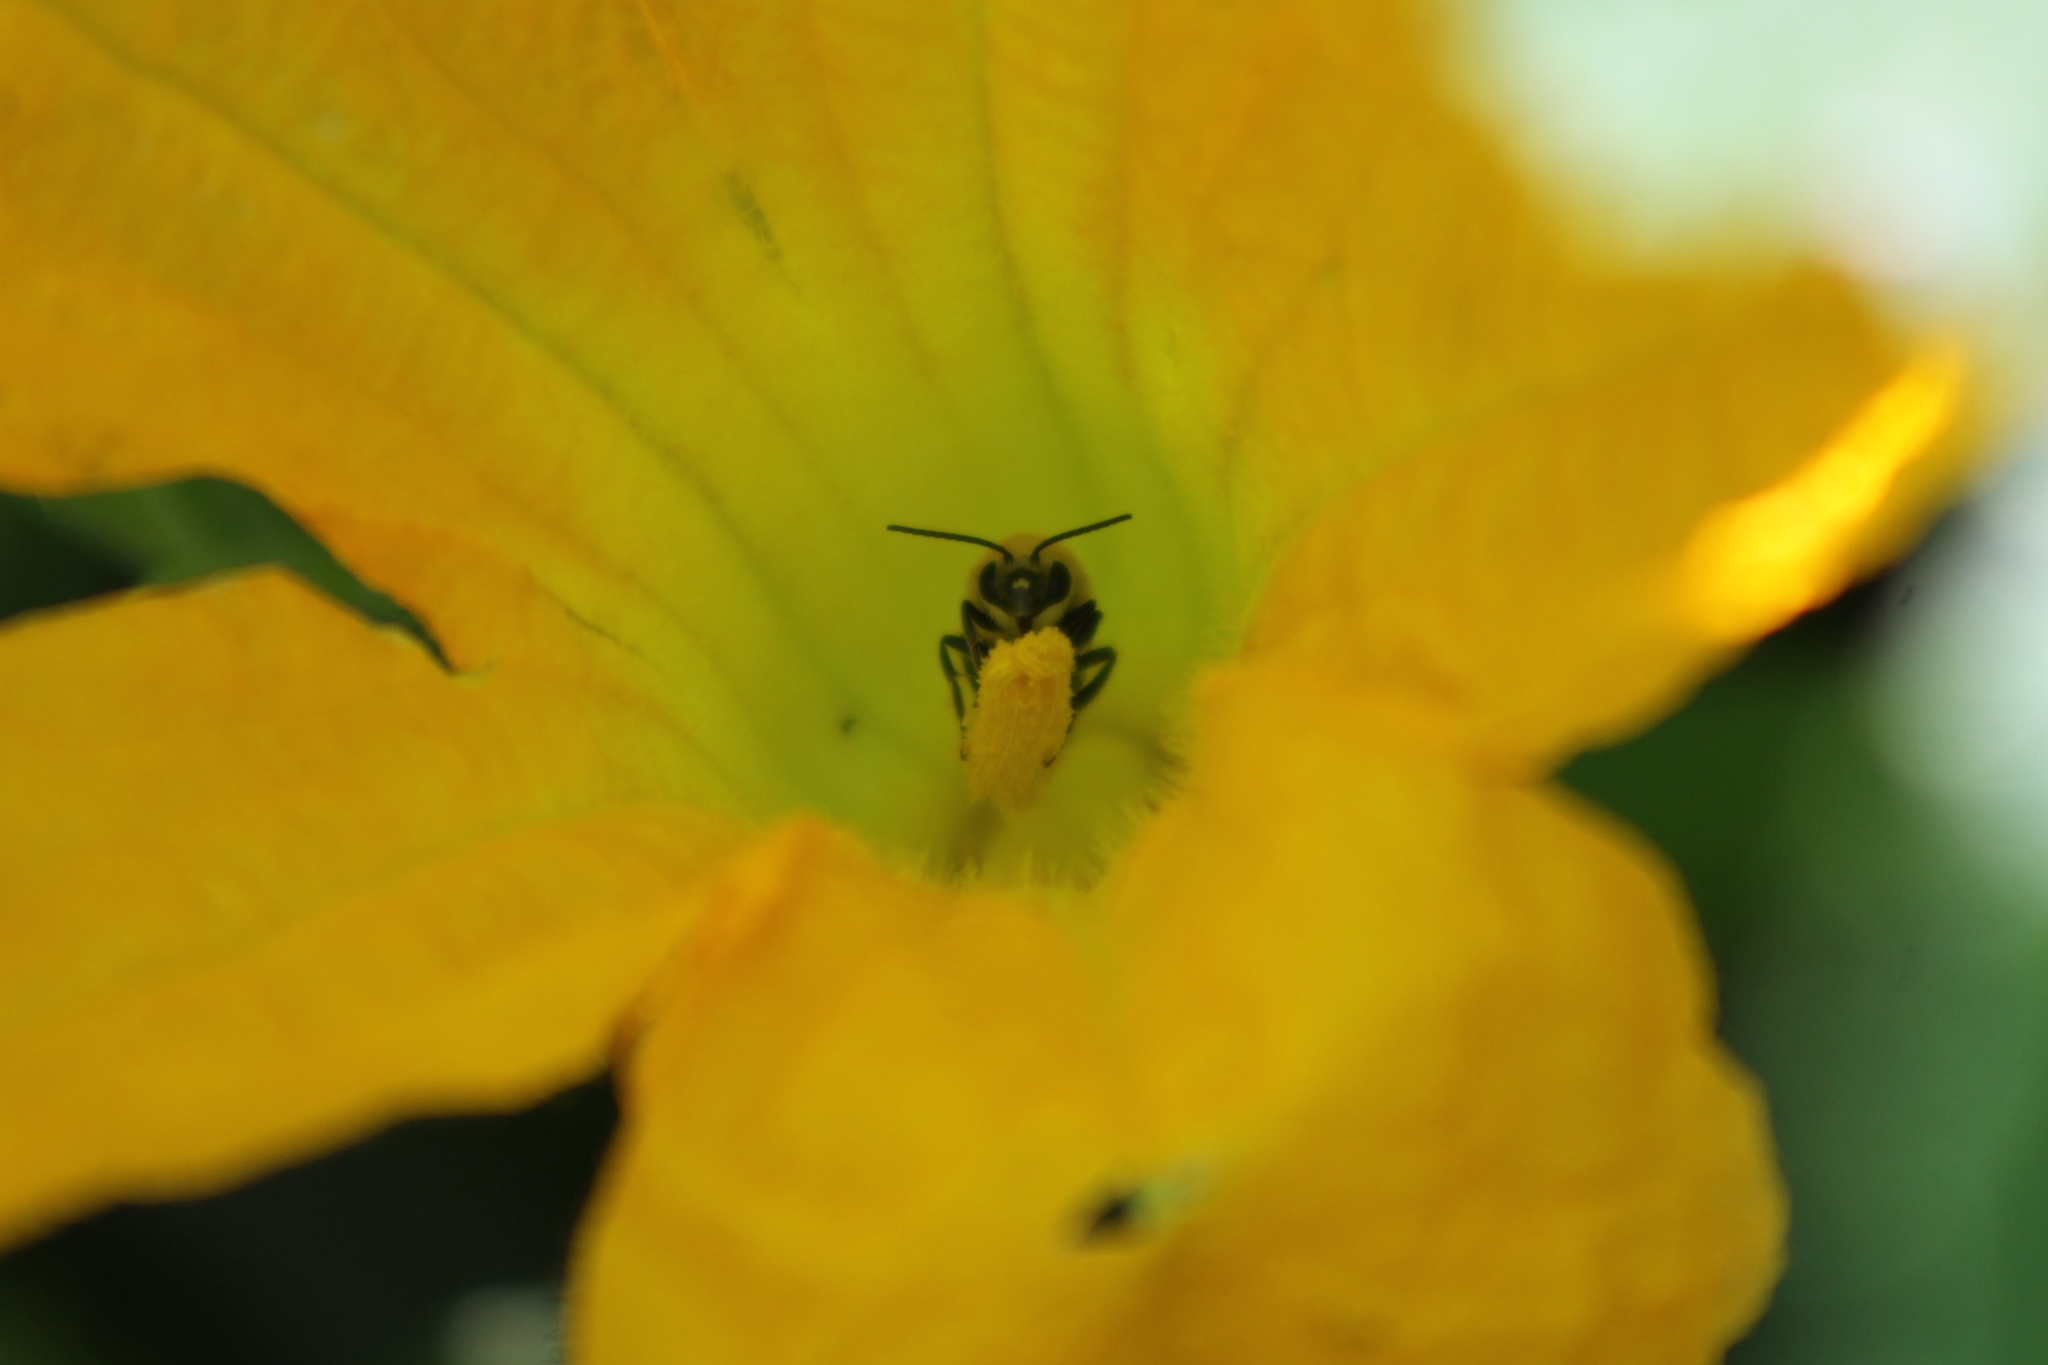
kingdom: Animalia
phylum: Arthropoda
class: Insecta
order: Hymenoptera
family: Apidae
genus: Peponapis
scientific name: Peponapis pruinosa
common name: Pruinose squash bee
